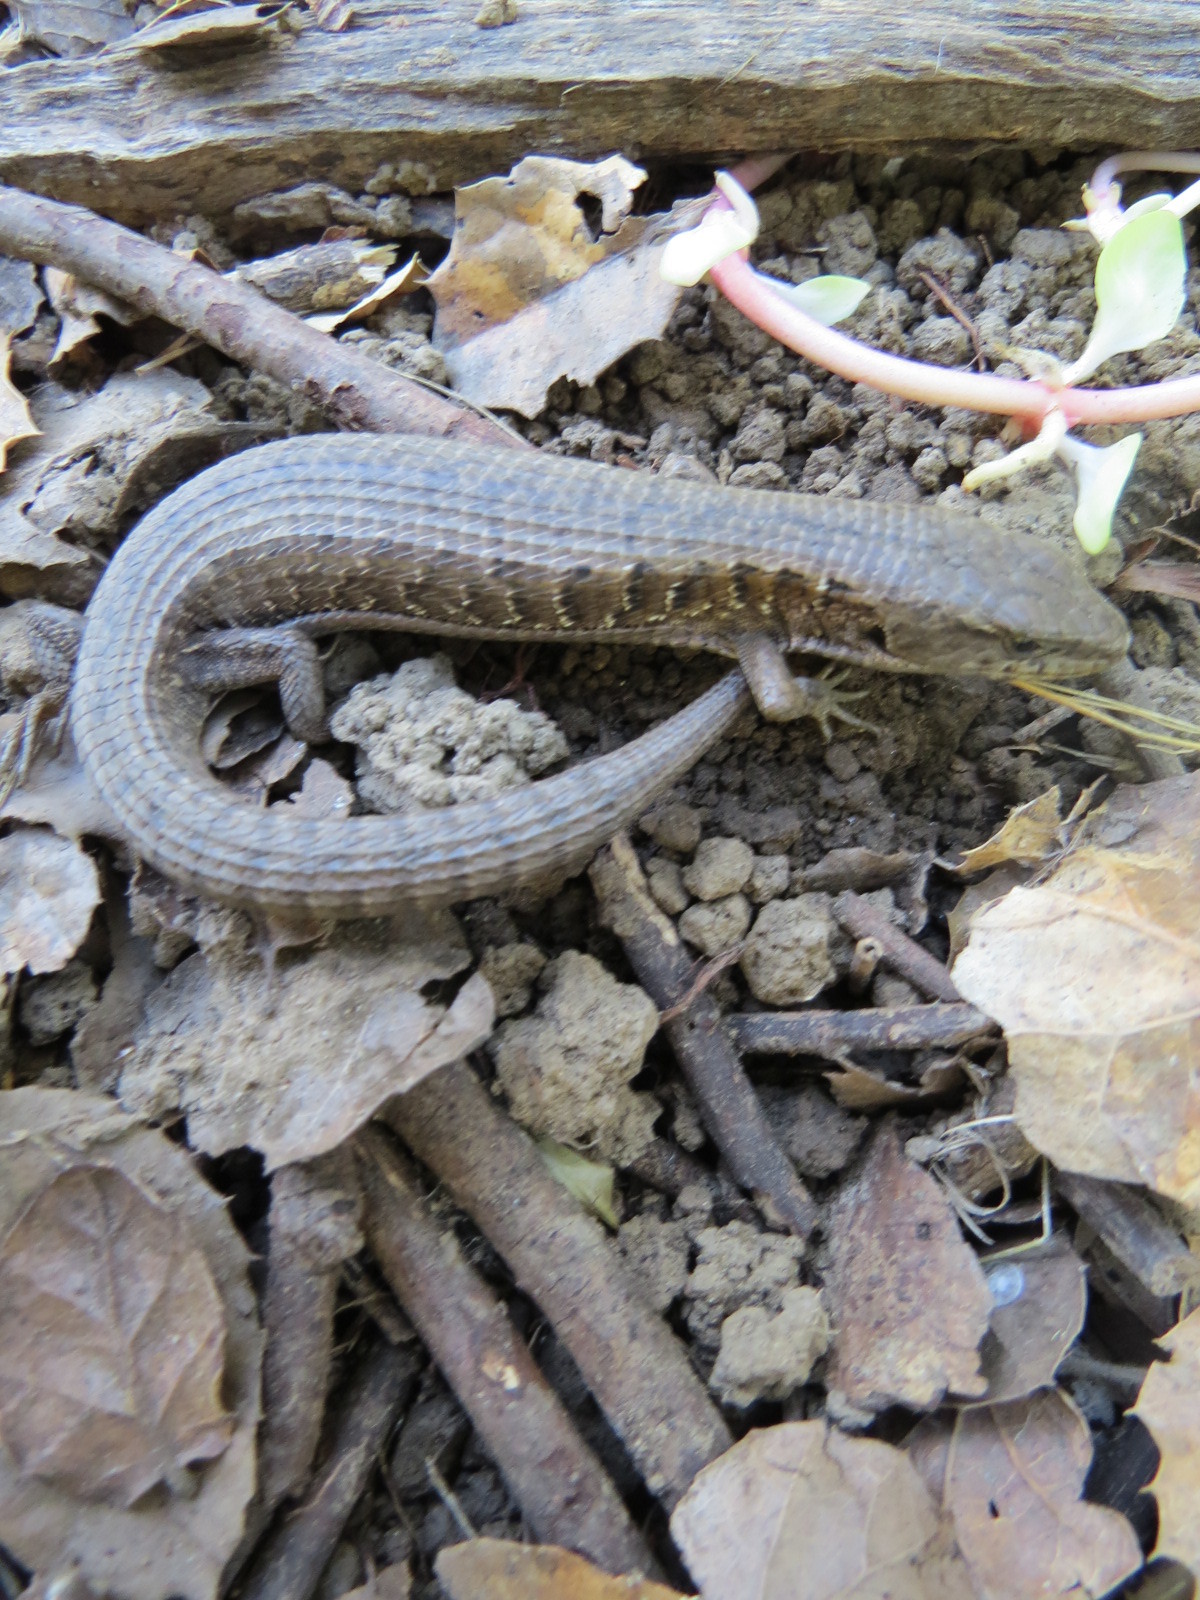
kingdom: Animalia
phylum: Chordata
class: Squamata
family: Anguidae
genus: Elgaria
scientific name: Elgaria coerulea
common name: Northern alligator lizard
